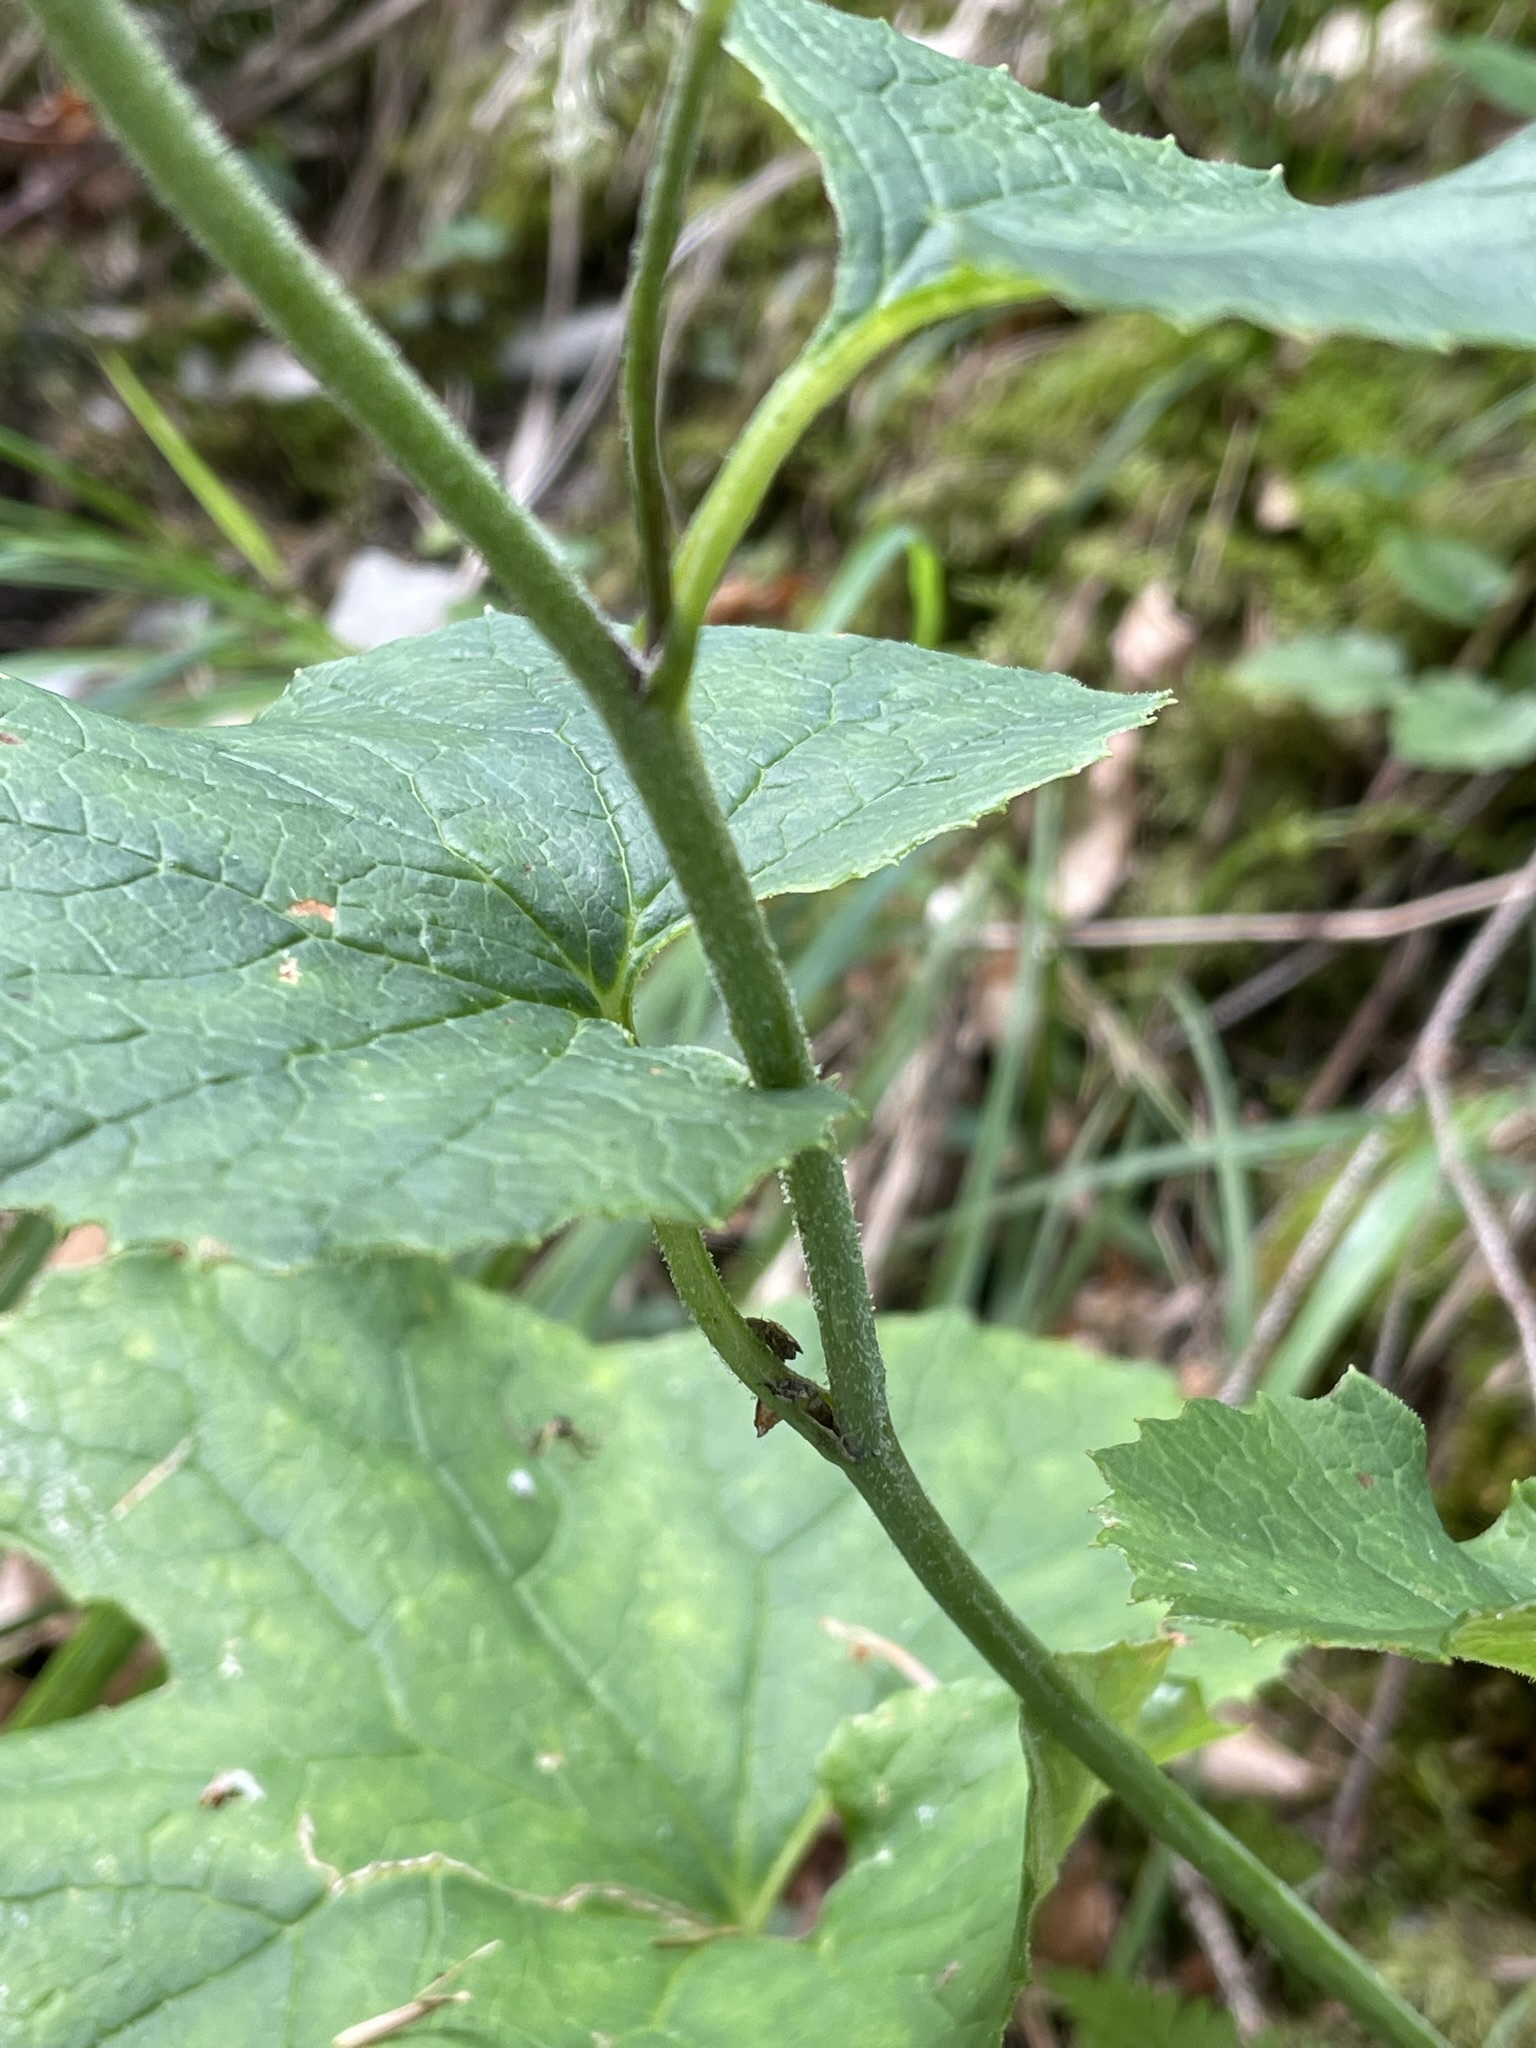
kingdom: Plantae
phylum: Tracheophyta
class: Magnoliopsida
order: Asterales
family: Asteraceae
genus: Adenostyles
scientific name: Adenostyles alpina
